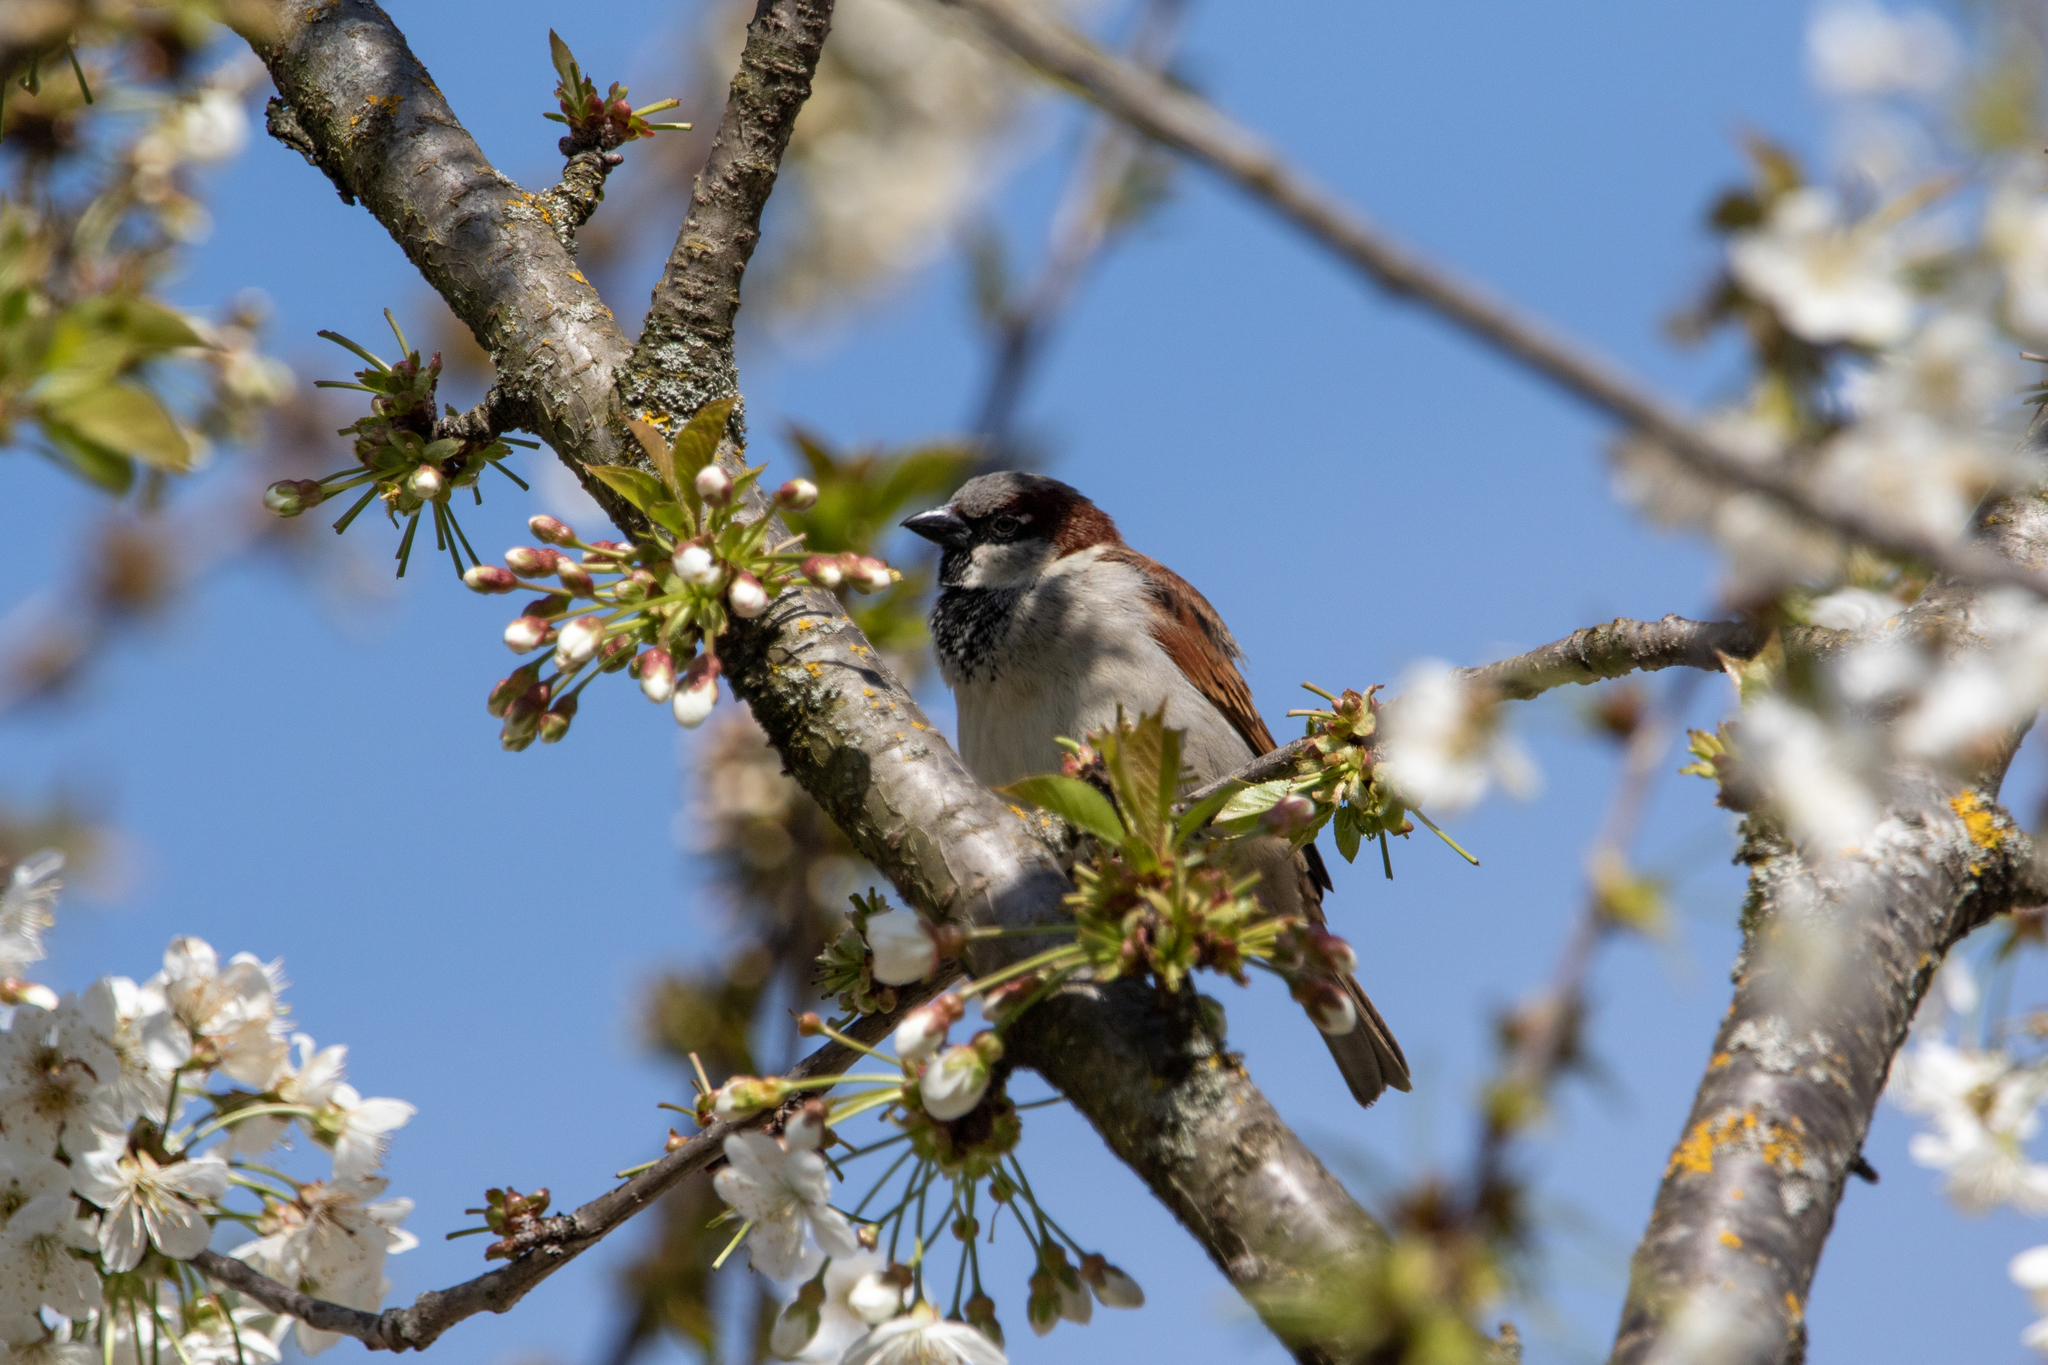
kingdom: Animalia
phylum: Chordata
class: Aves
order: Passeriformes
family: Passeridae
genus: Passer
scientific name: Passer domesticus
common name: House sparrow
